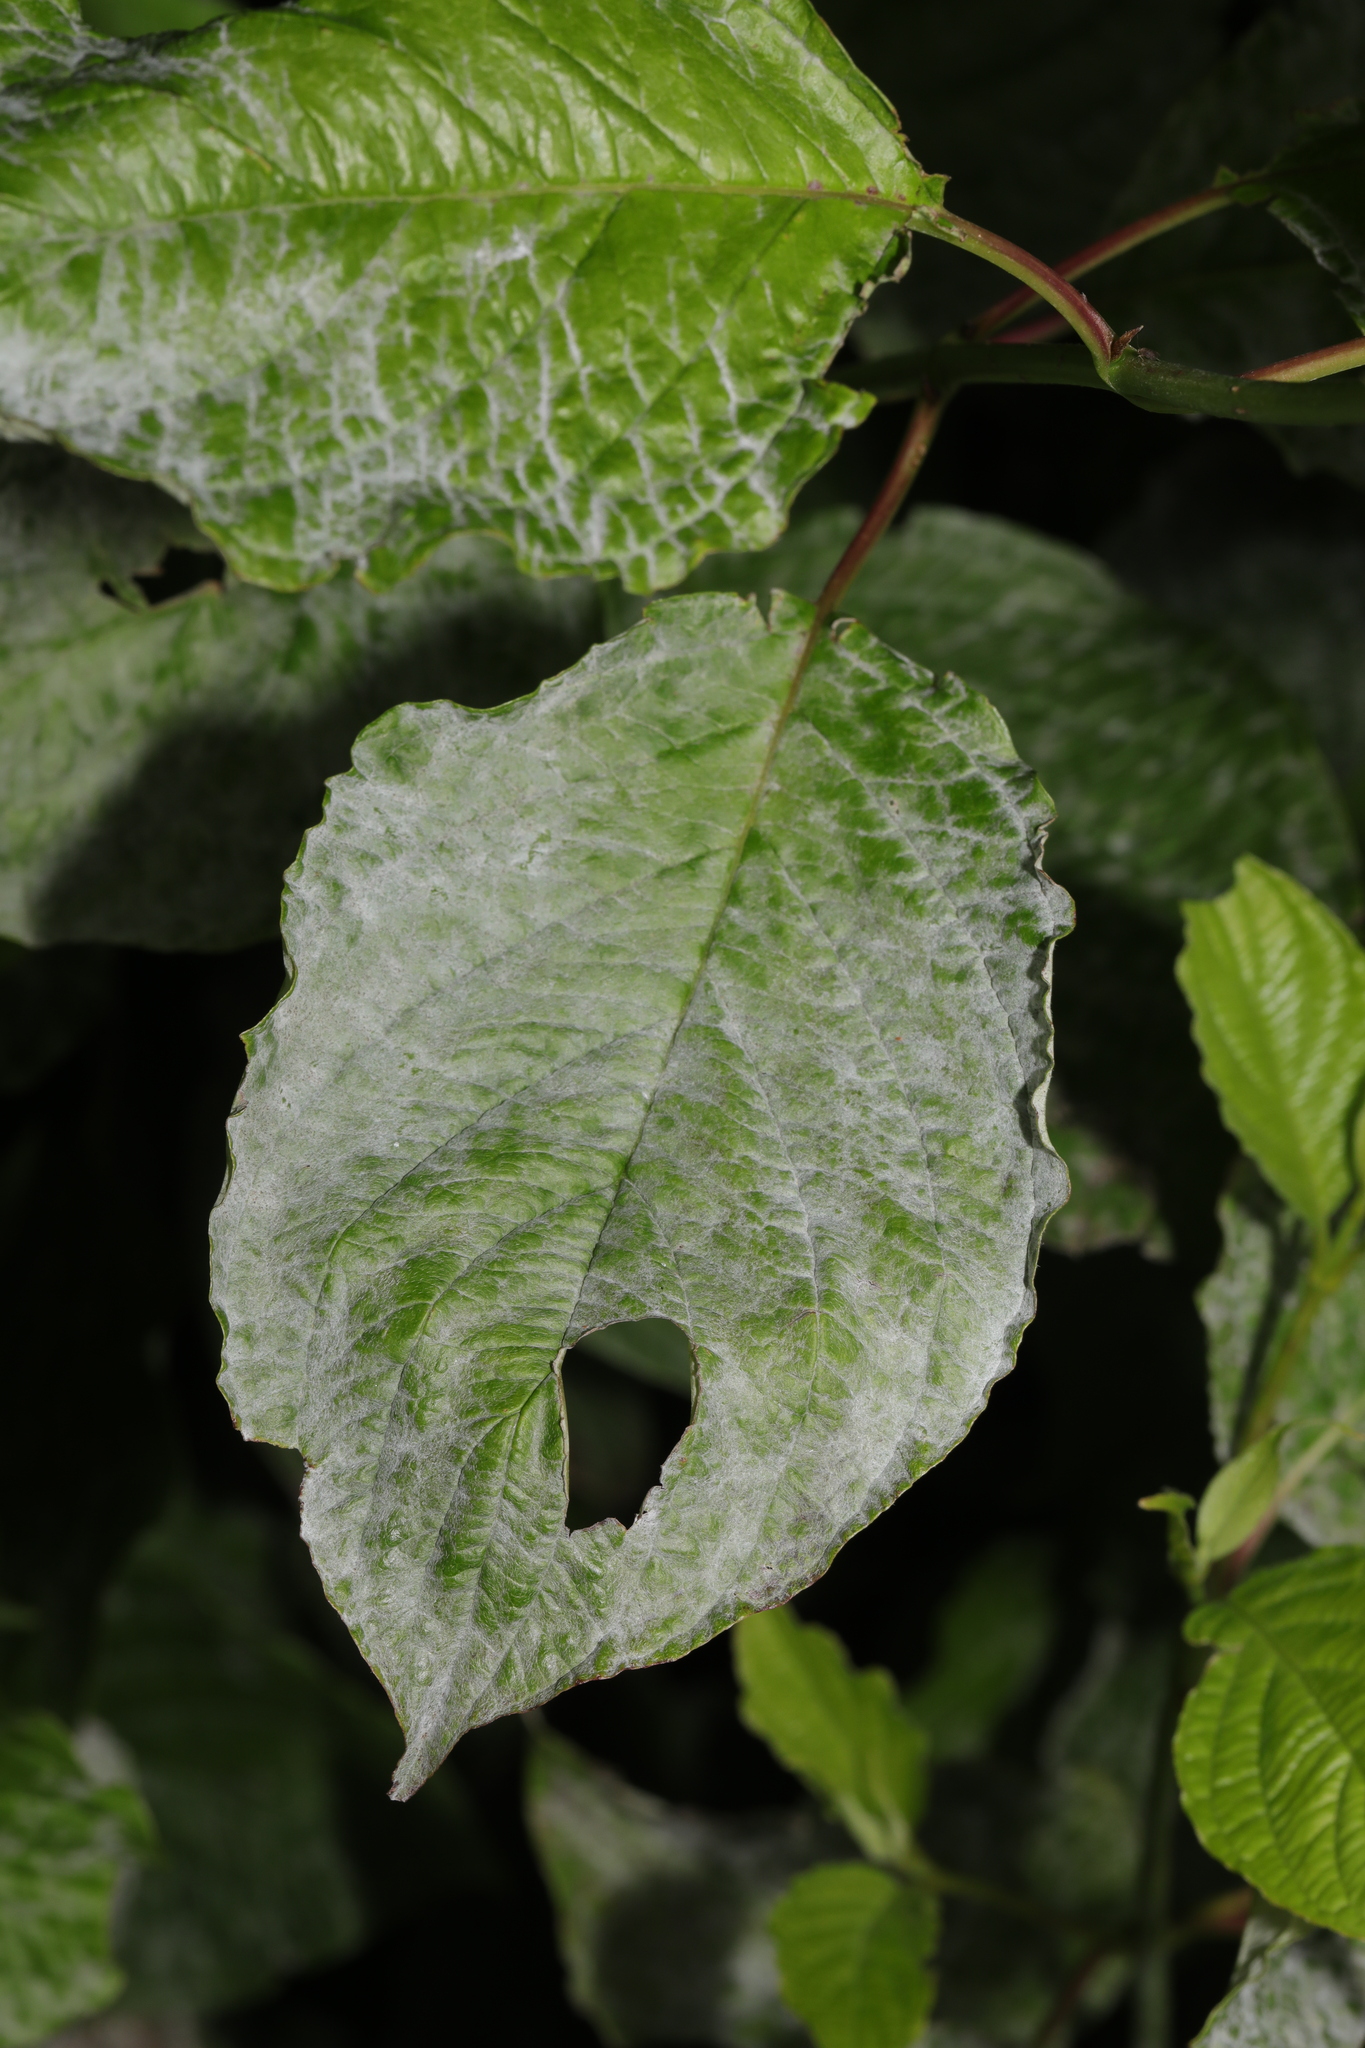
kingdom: Fungi
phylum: Ascomycota
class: Leotiomycetes
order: Helotiales
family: Erysiphaceae
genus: Erysiphe
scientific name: Erysiphe tortilis
